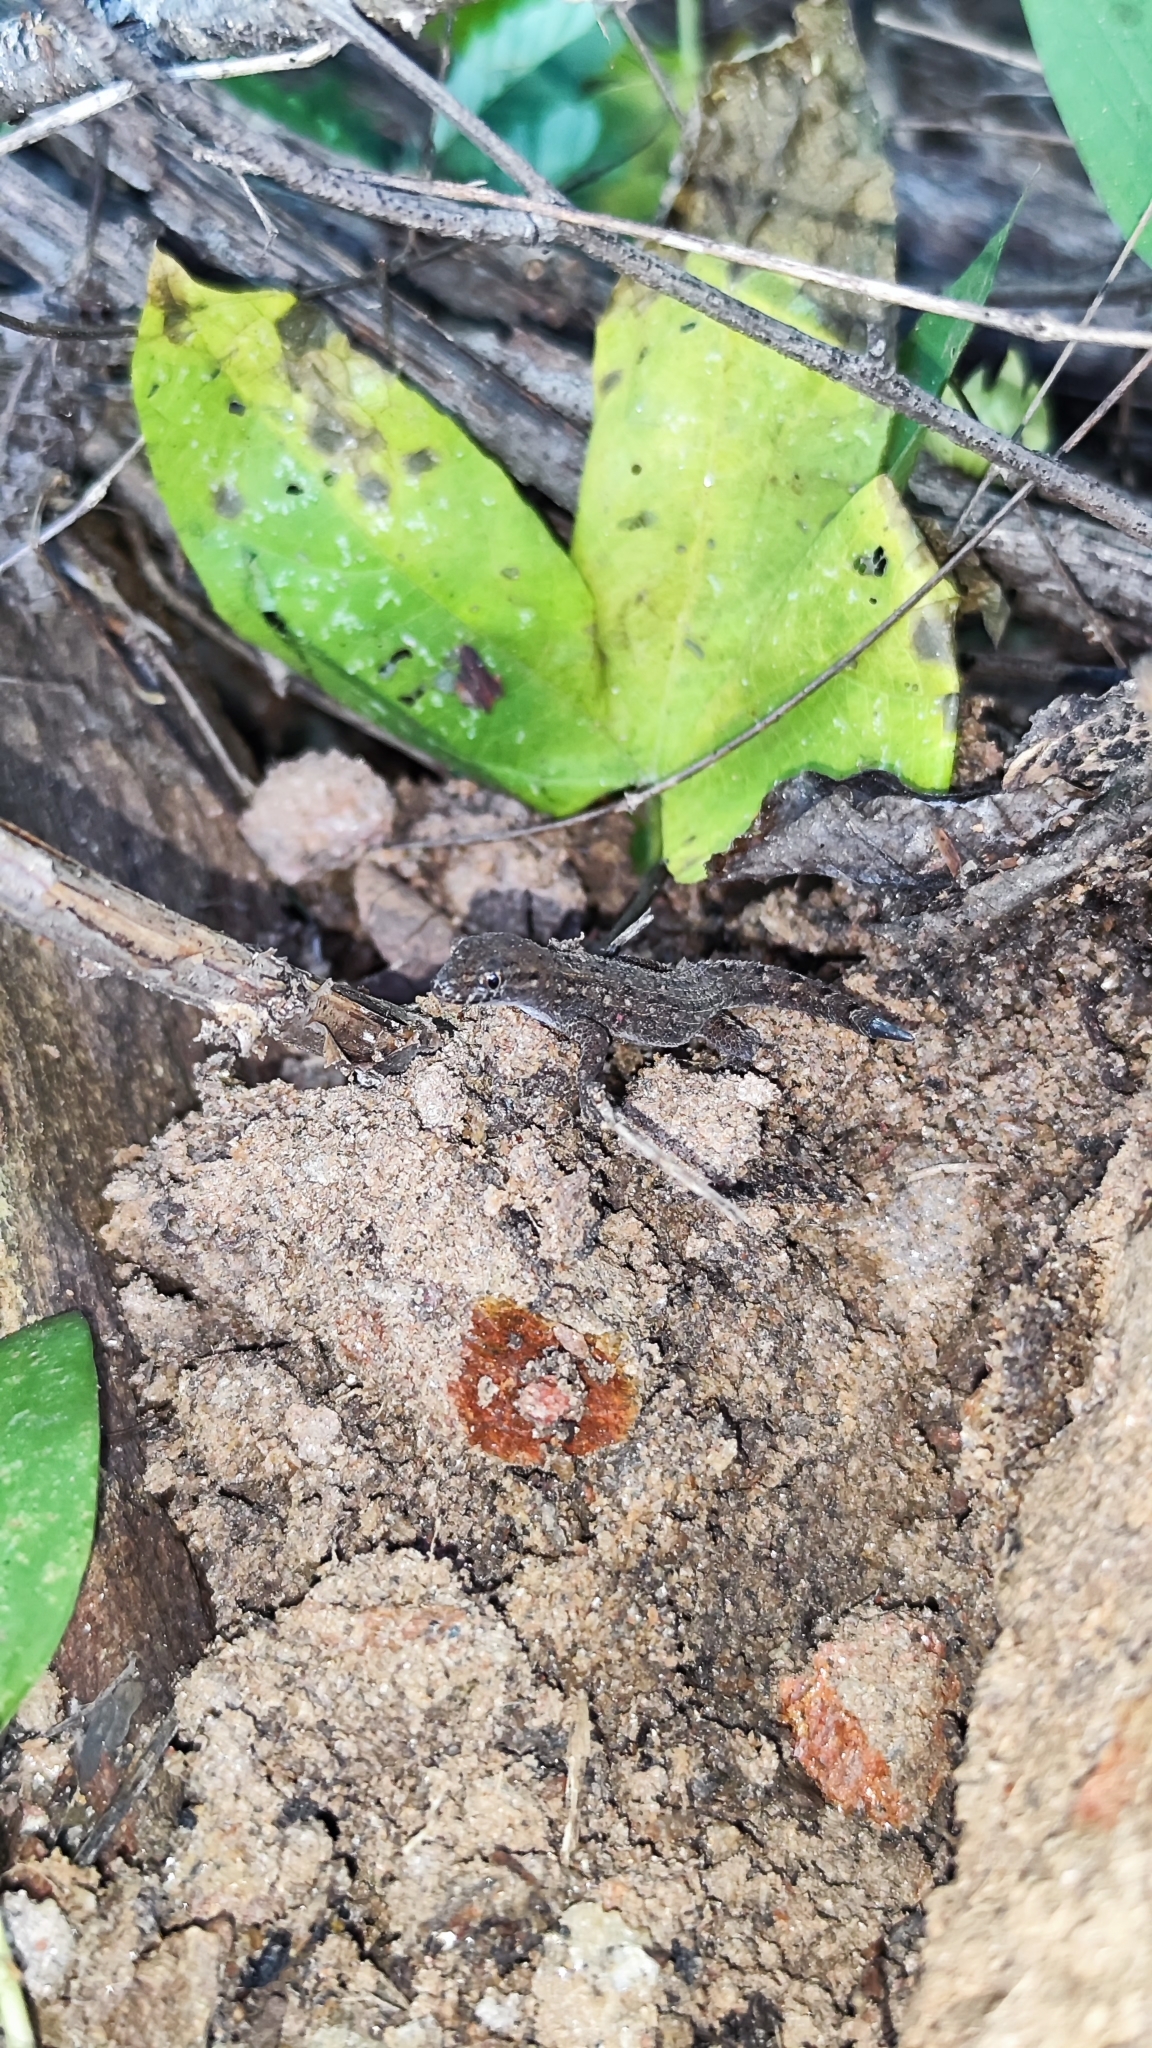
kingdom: Animalia
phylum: Chordata
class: Squamata
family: Phyllodactylidae
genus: Gymnodactylus
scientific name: Gymnodactylus geckoides
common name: Naked-toed gecko
